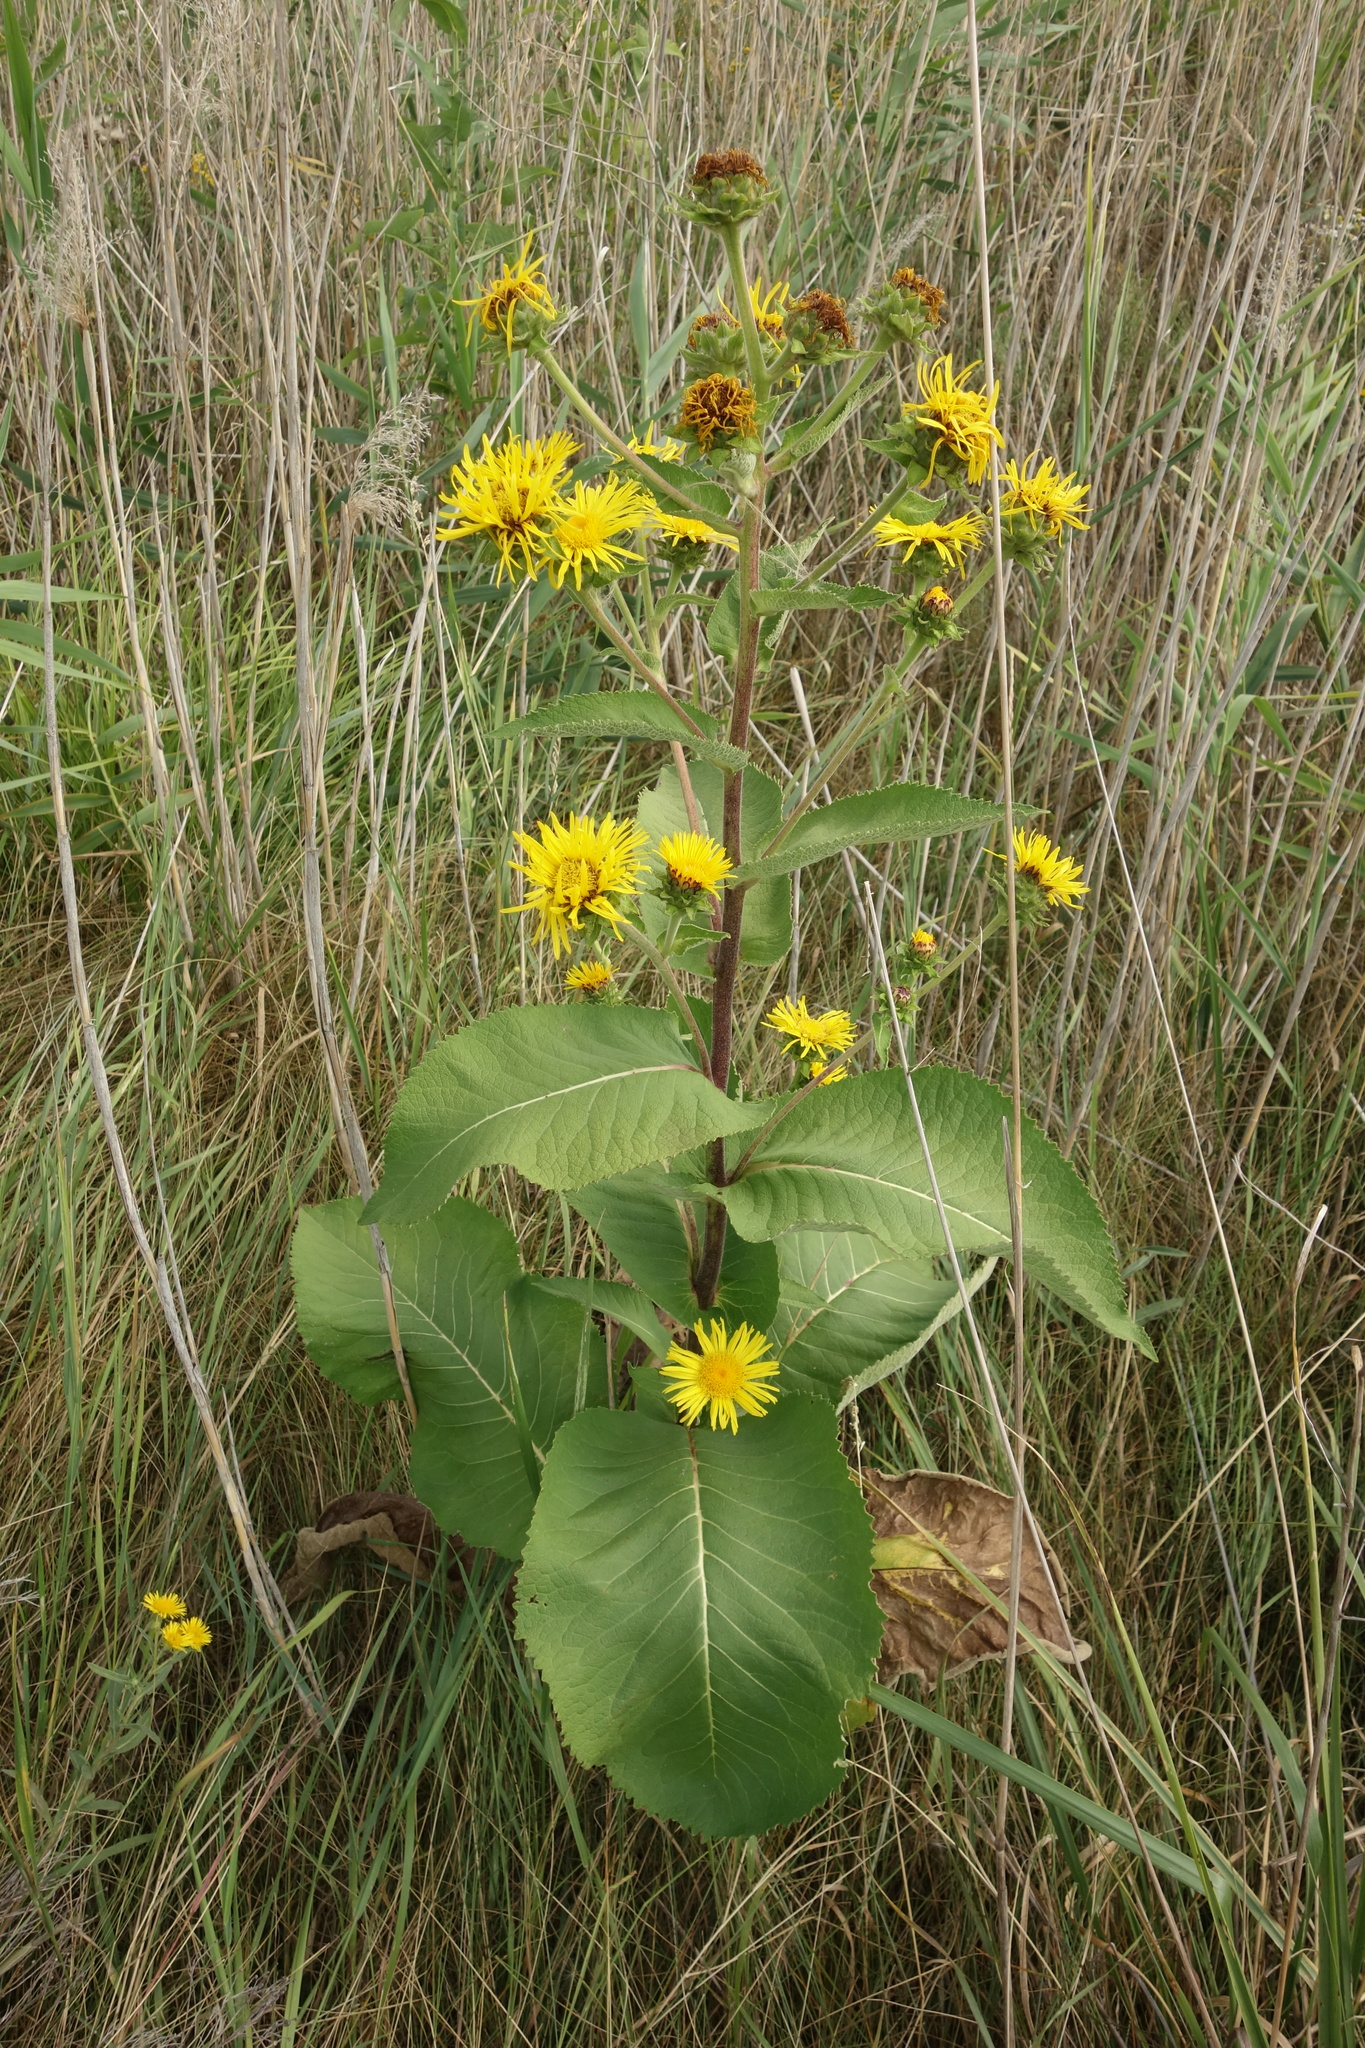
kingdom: Plantae
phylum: Tracheophyta
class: Magnoliopsida
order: Asterales
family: Asteraceae
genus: Inula
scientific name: Inula helenium
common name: Elecampane
